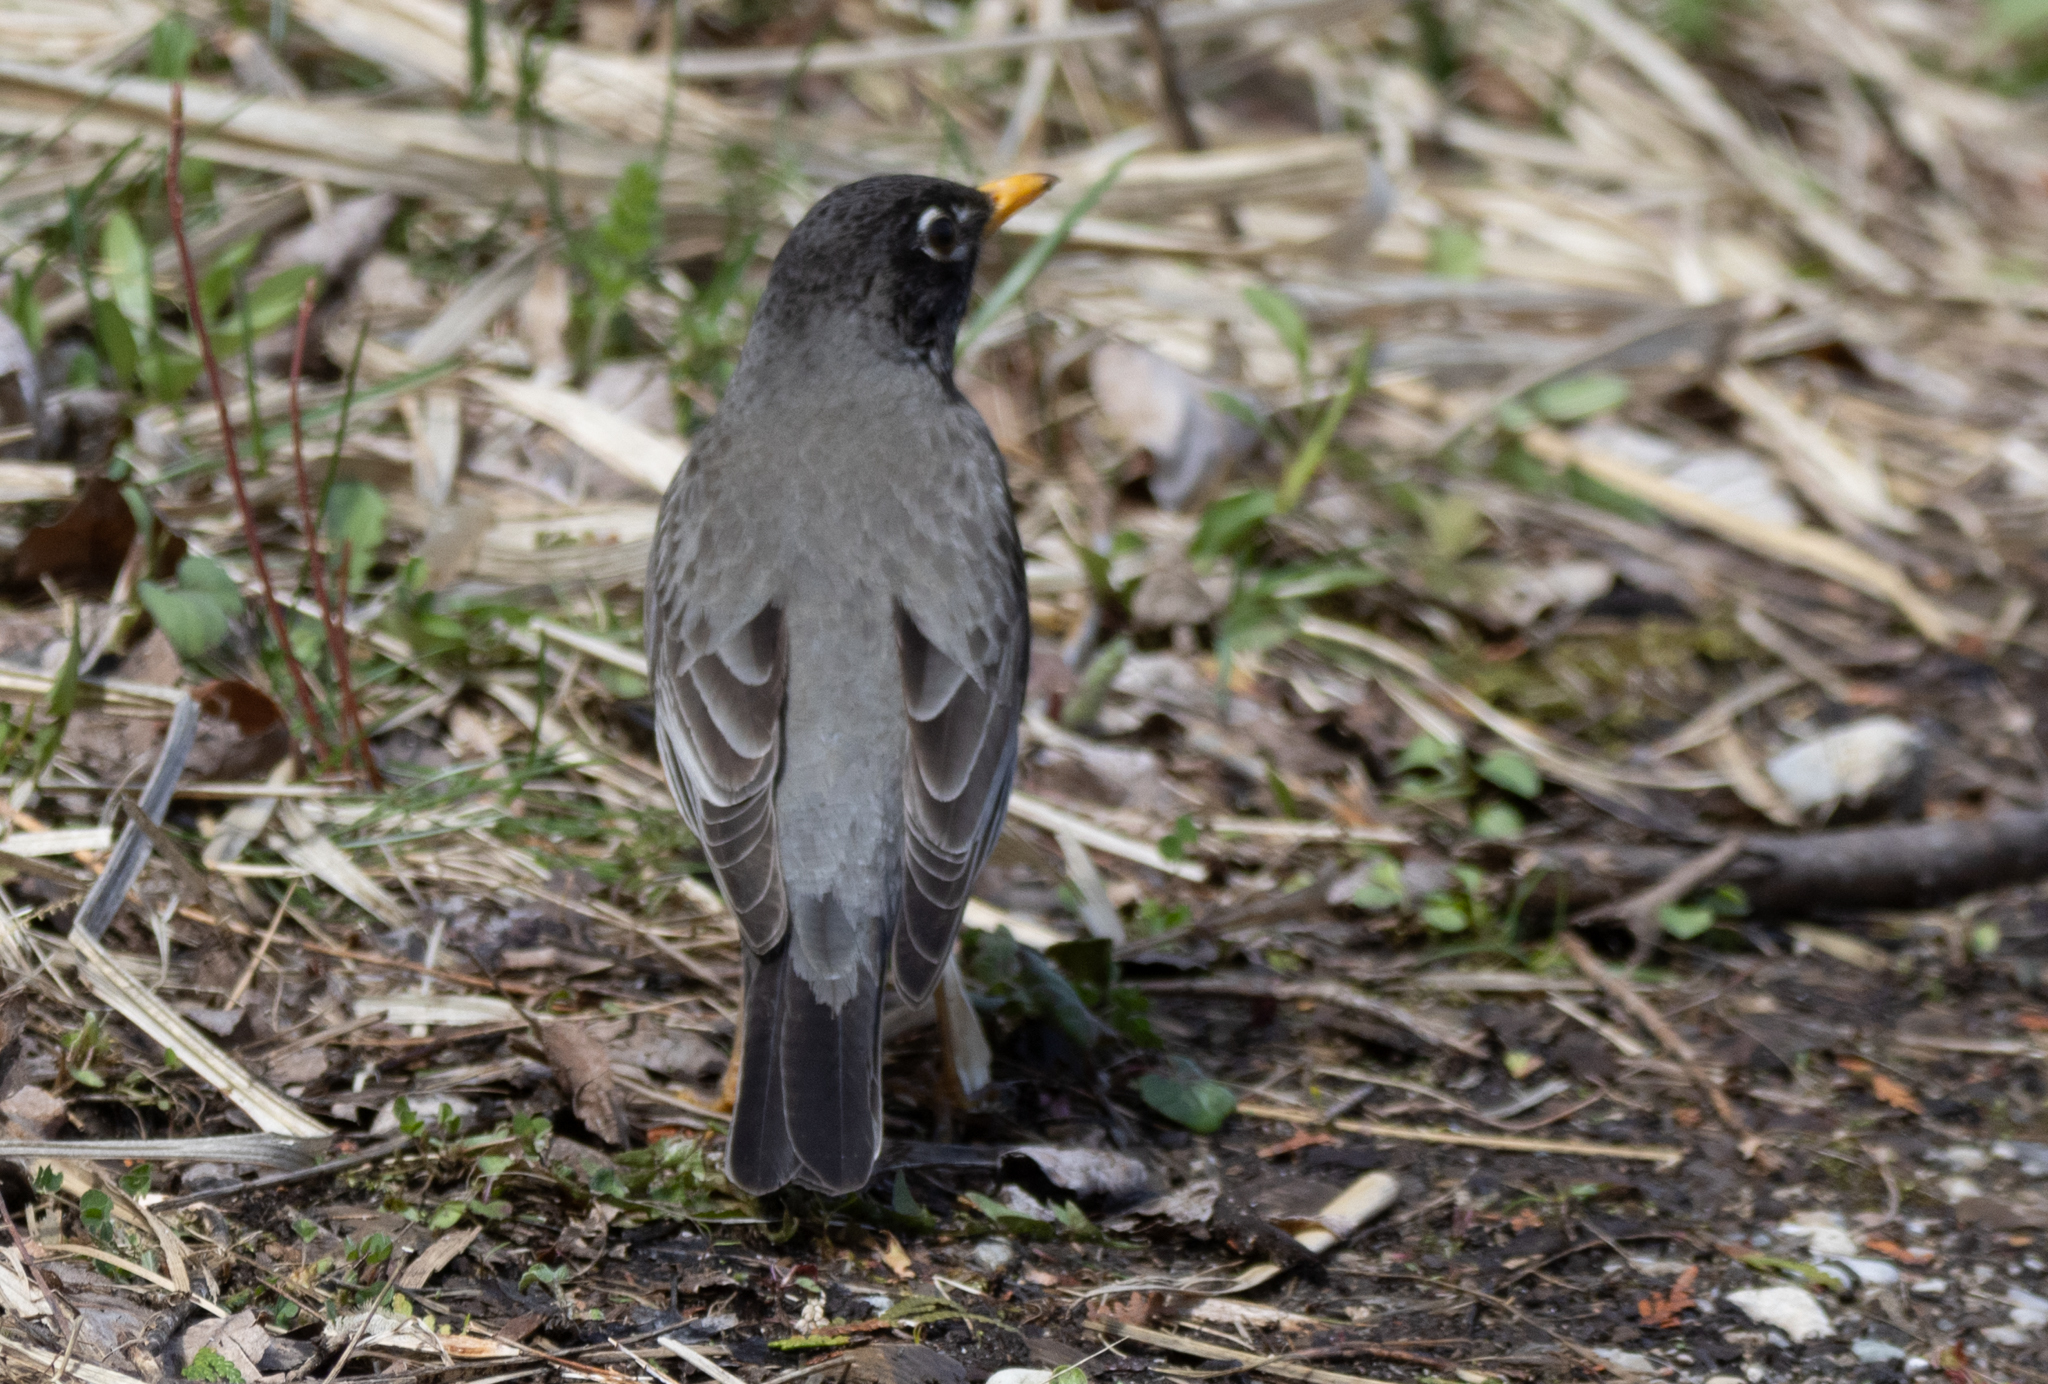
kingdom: Animalia
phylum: Chordata
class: Aves
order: Passeriformes
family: Turdidae
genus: Turdus
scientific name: Turdus migratorius
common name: American robin
